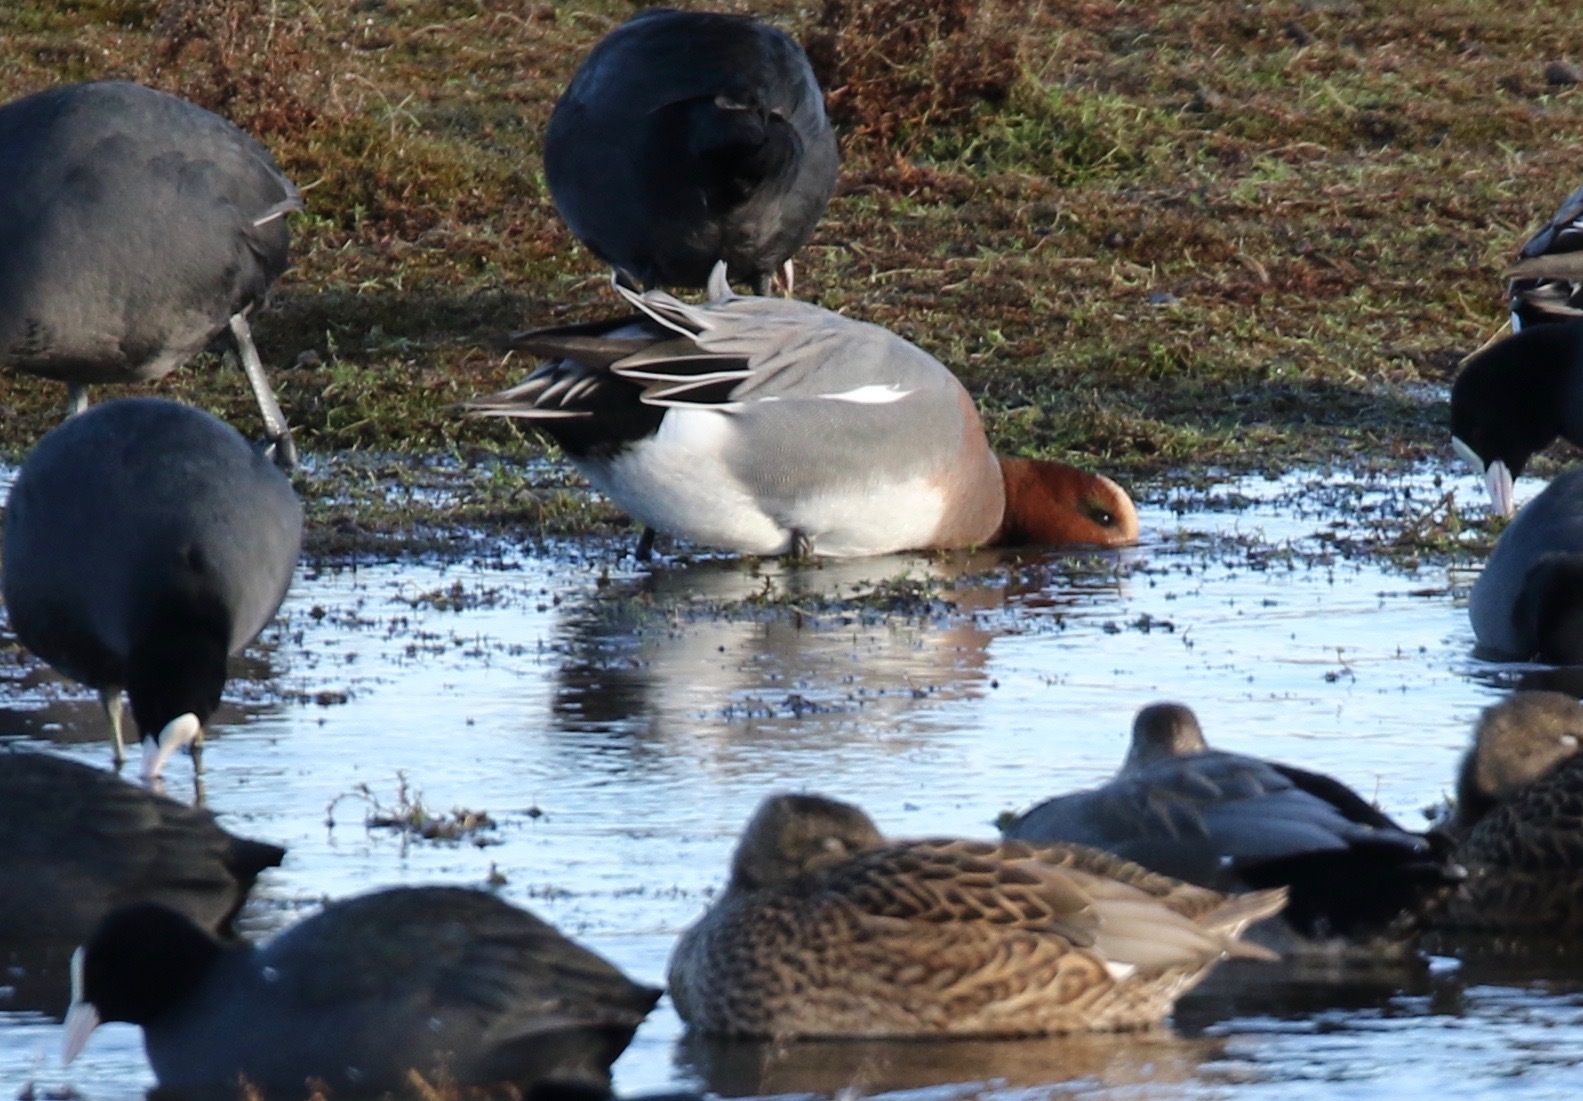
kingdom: Animalia
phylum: Chordata
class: Aves
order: Anseriformes
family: Anatidae
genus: Mareca
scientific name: Mareca penelope
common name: Eurasian wigeon
